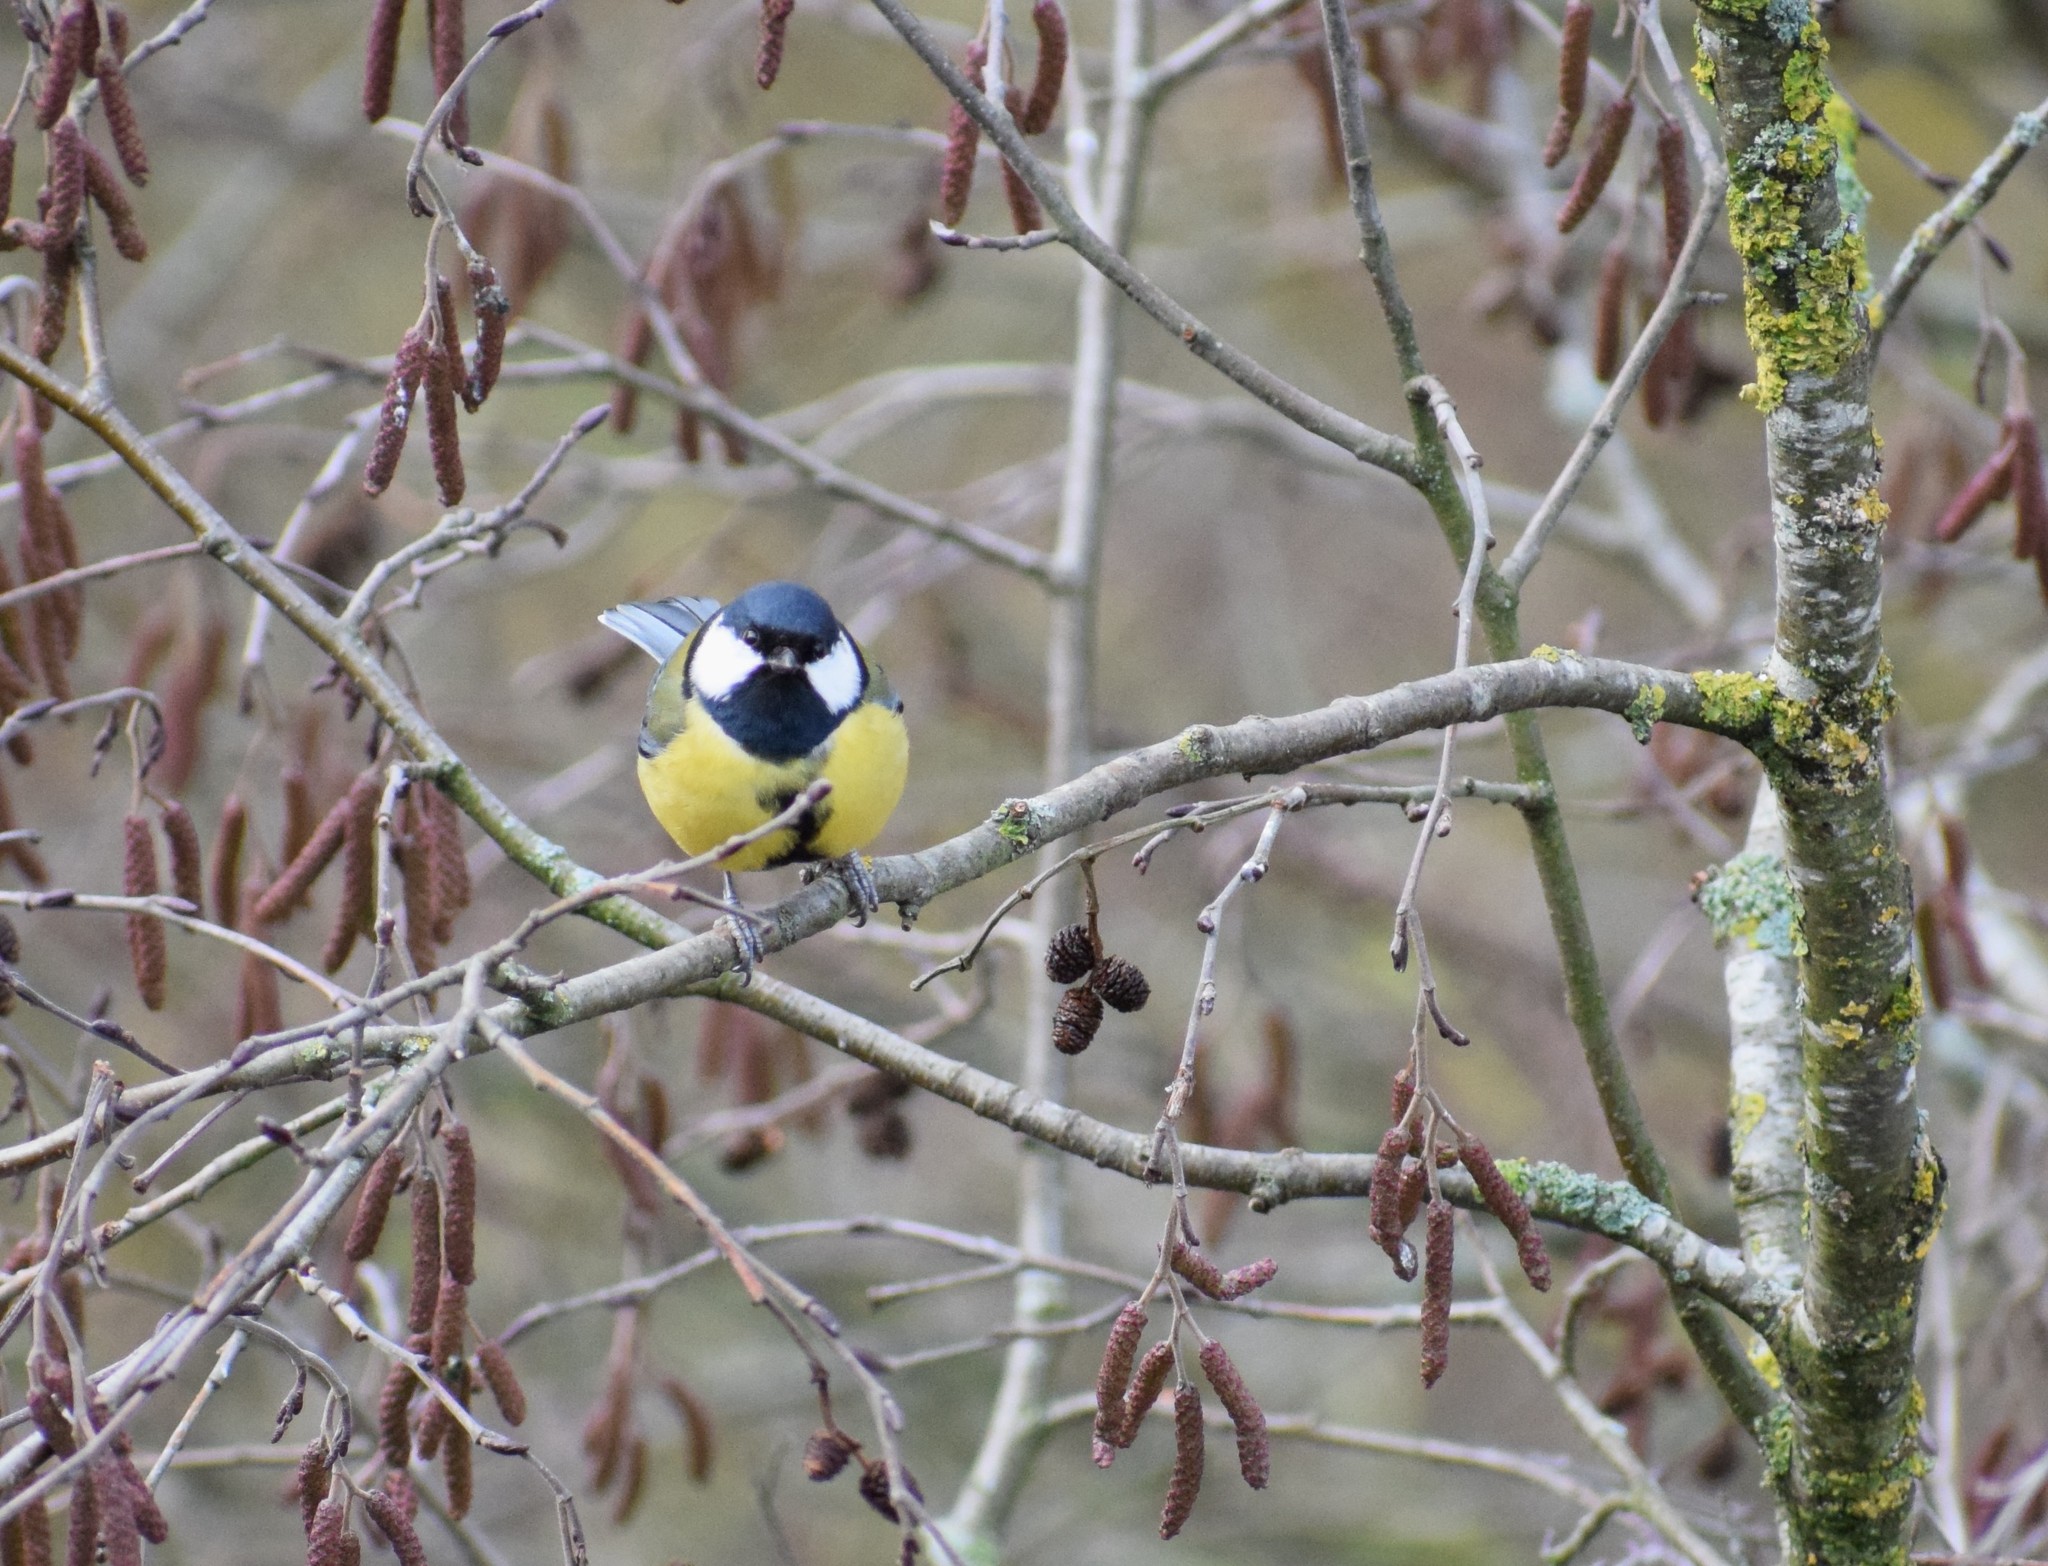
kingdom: Animalia
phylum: Chordata
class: Aves
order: Passeriformes
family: Paridae
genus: Parus
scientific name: Parus major
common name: Great tit
